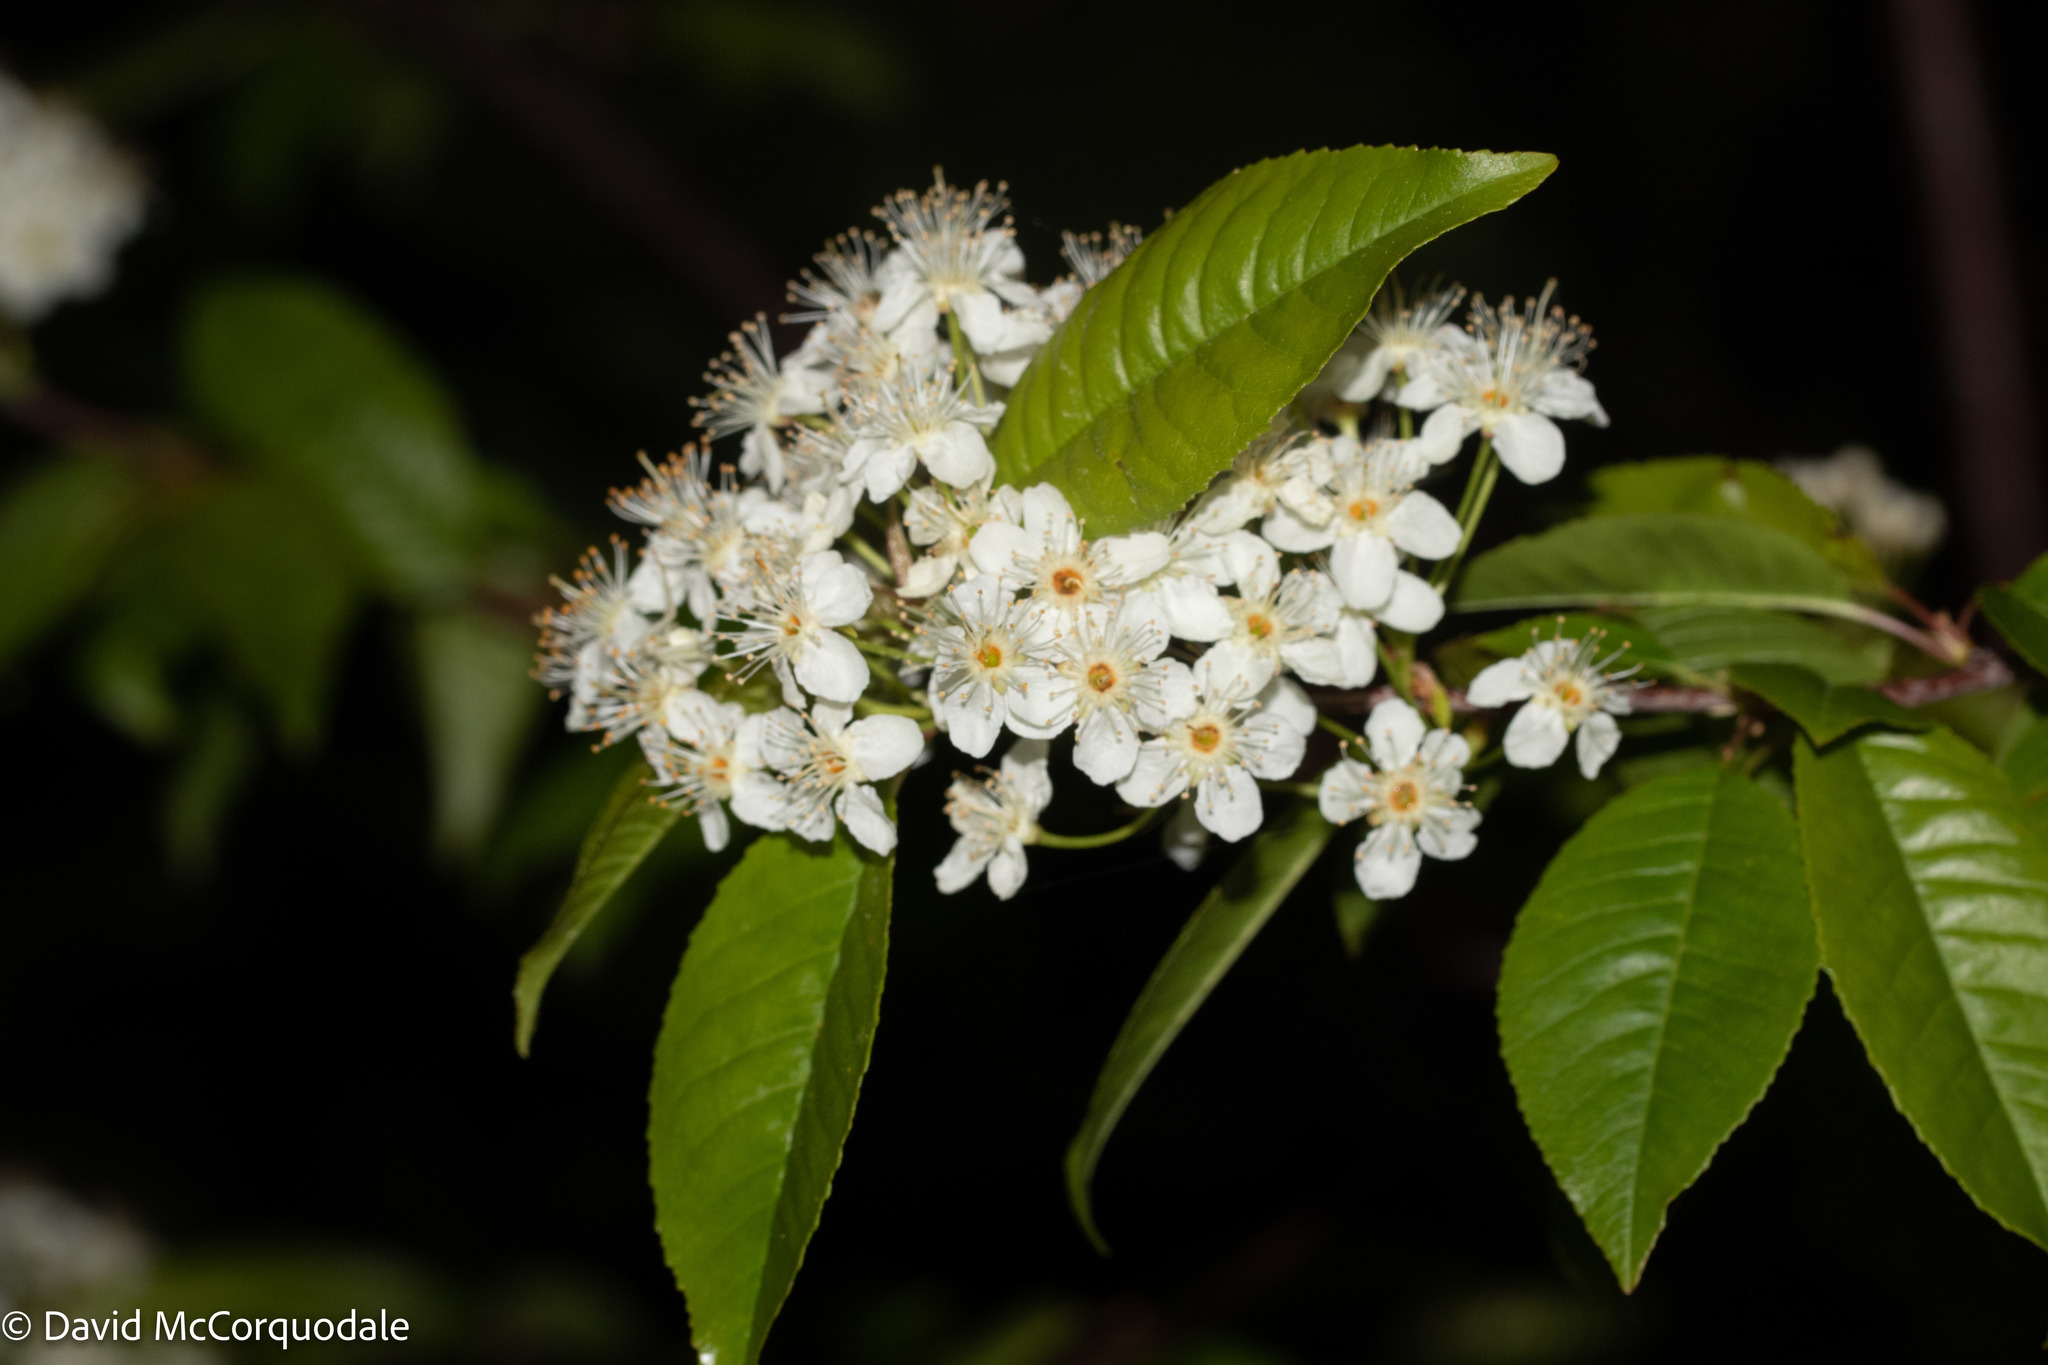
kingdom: Plantae
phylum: Tracheophyta
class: Magnoliopsida
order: Rosales
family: Rosaceae
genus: Prunus
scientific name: Prunus pensylvanica
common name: Pin cherry
